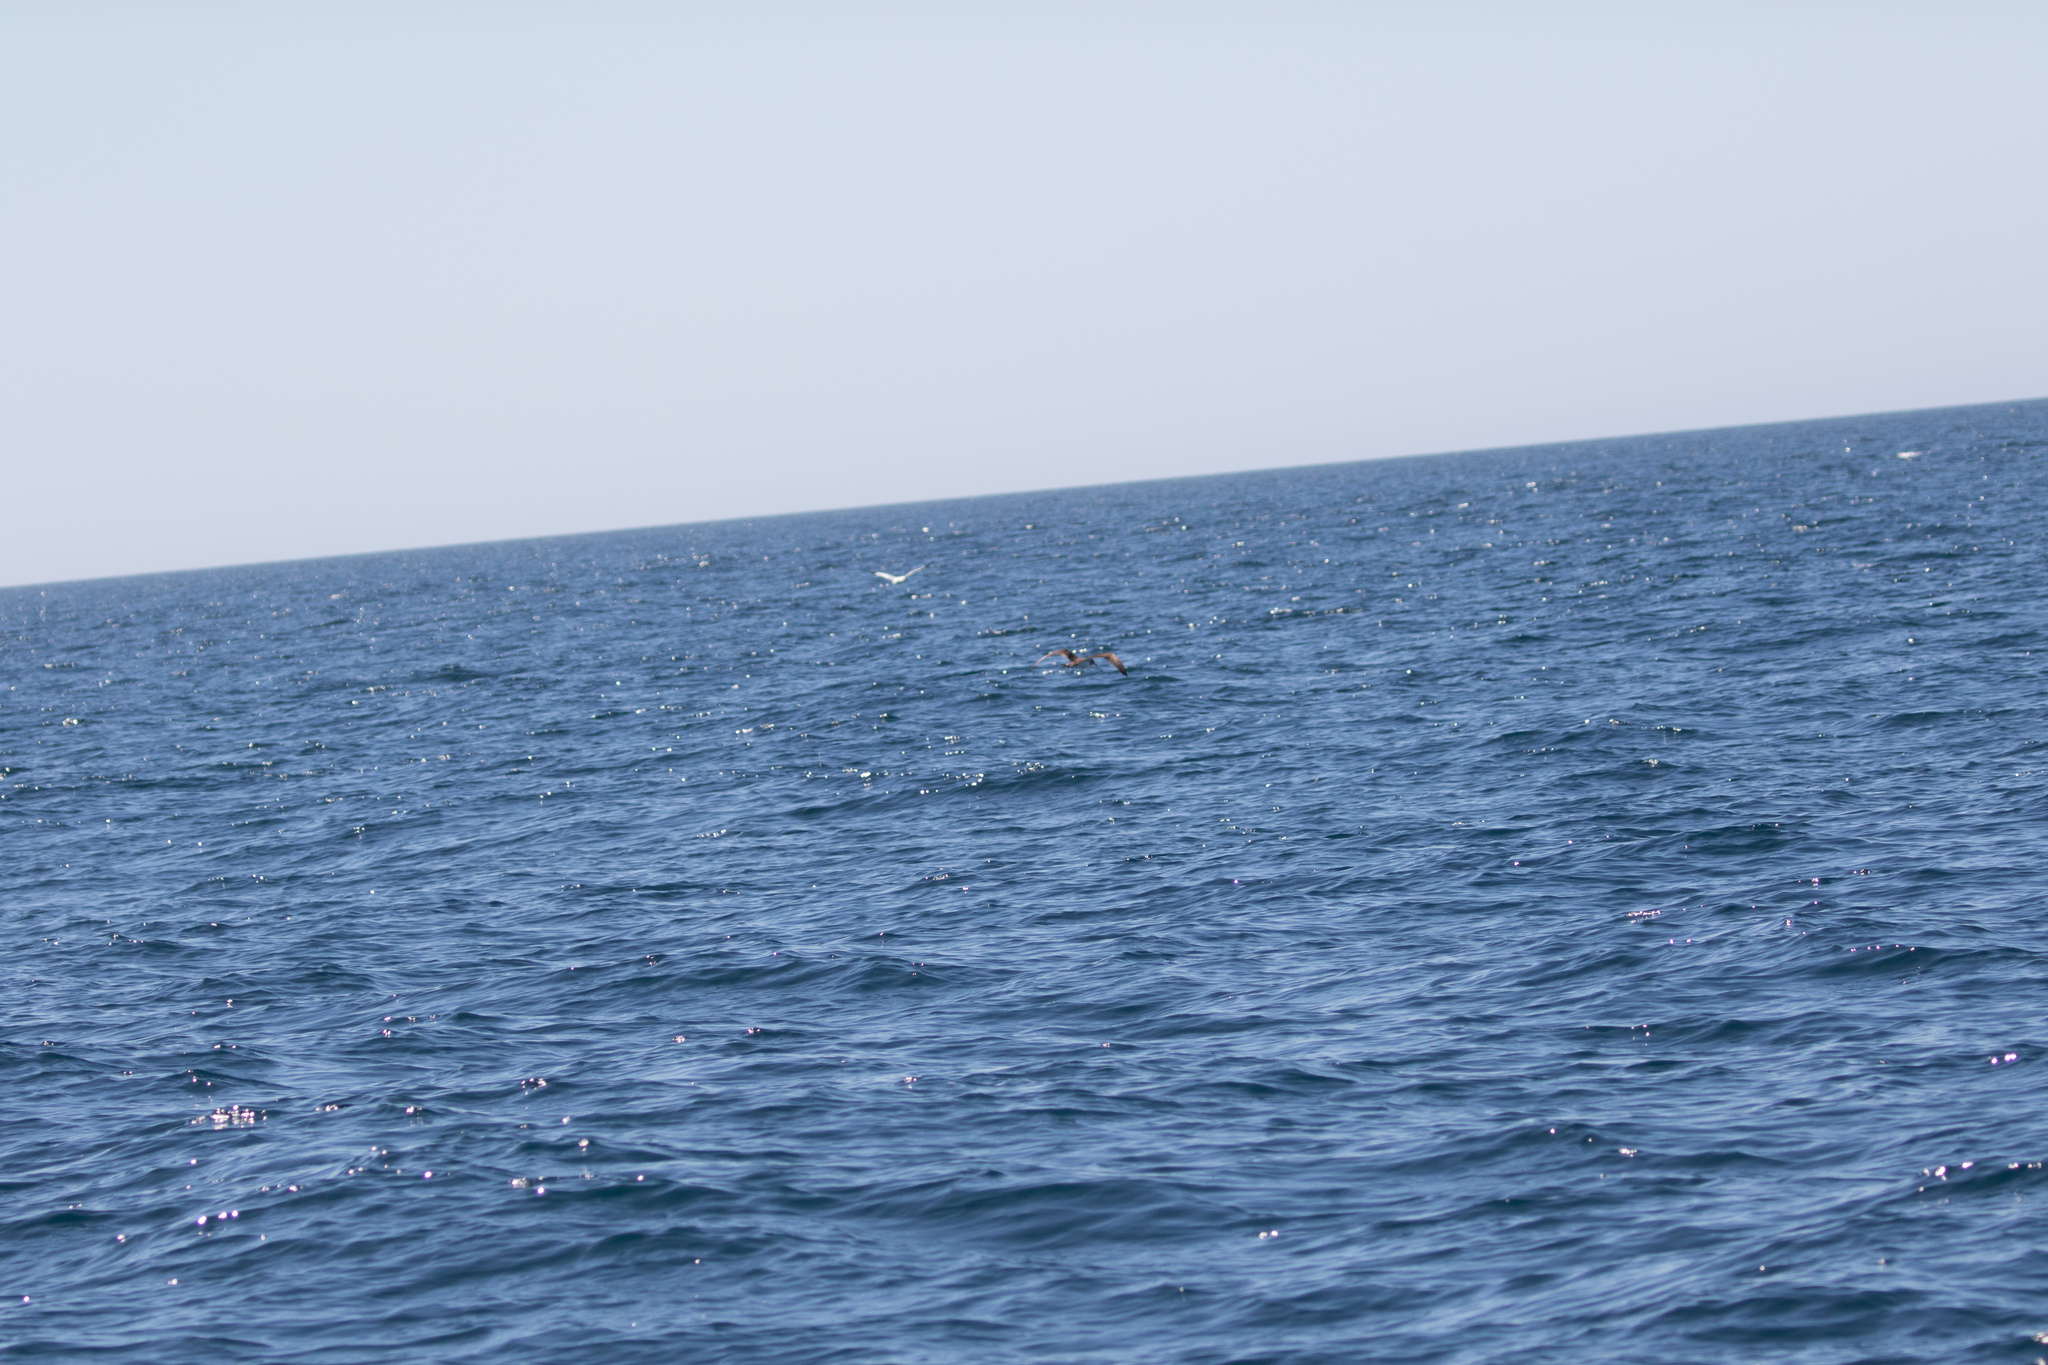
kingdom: Animalia
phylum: Chordata
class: Aves
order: Procellariiformes
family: Procellariidae
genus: Calonectris
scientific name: Calonectris diomedea
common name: Cory's shearwater
